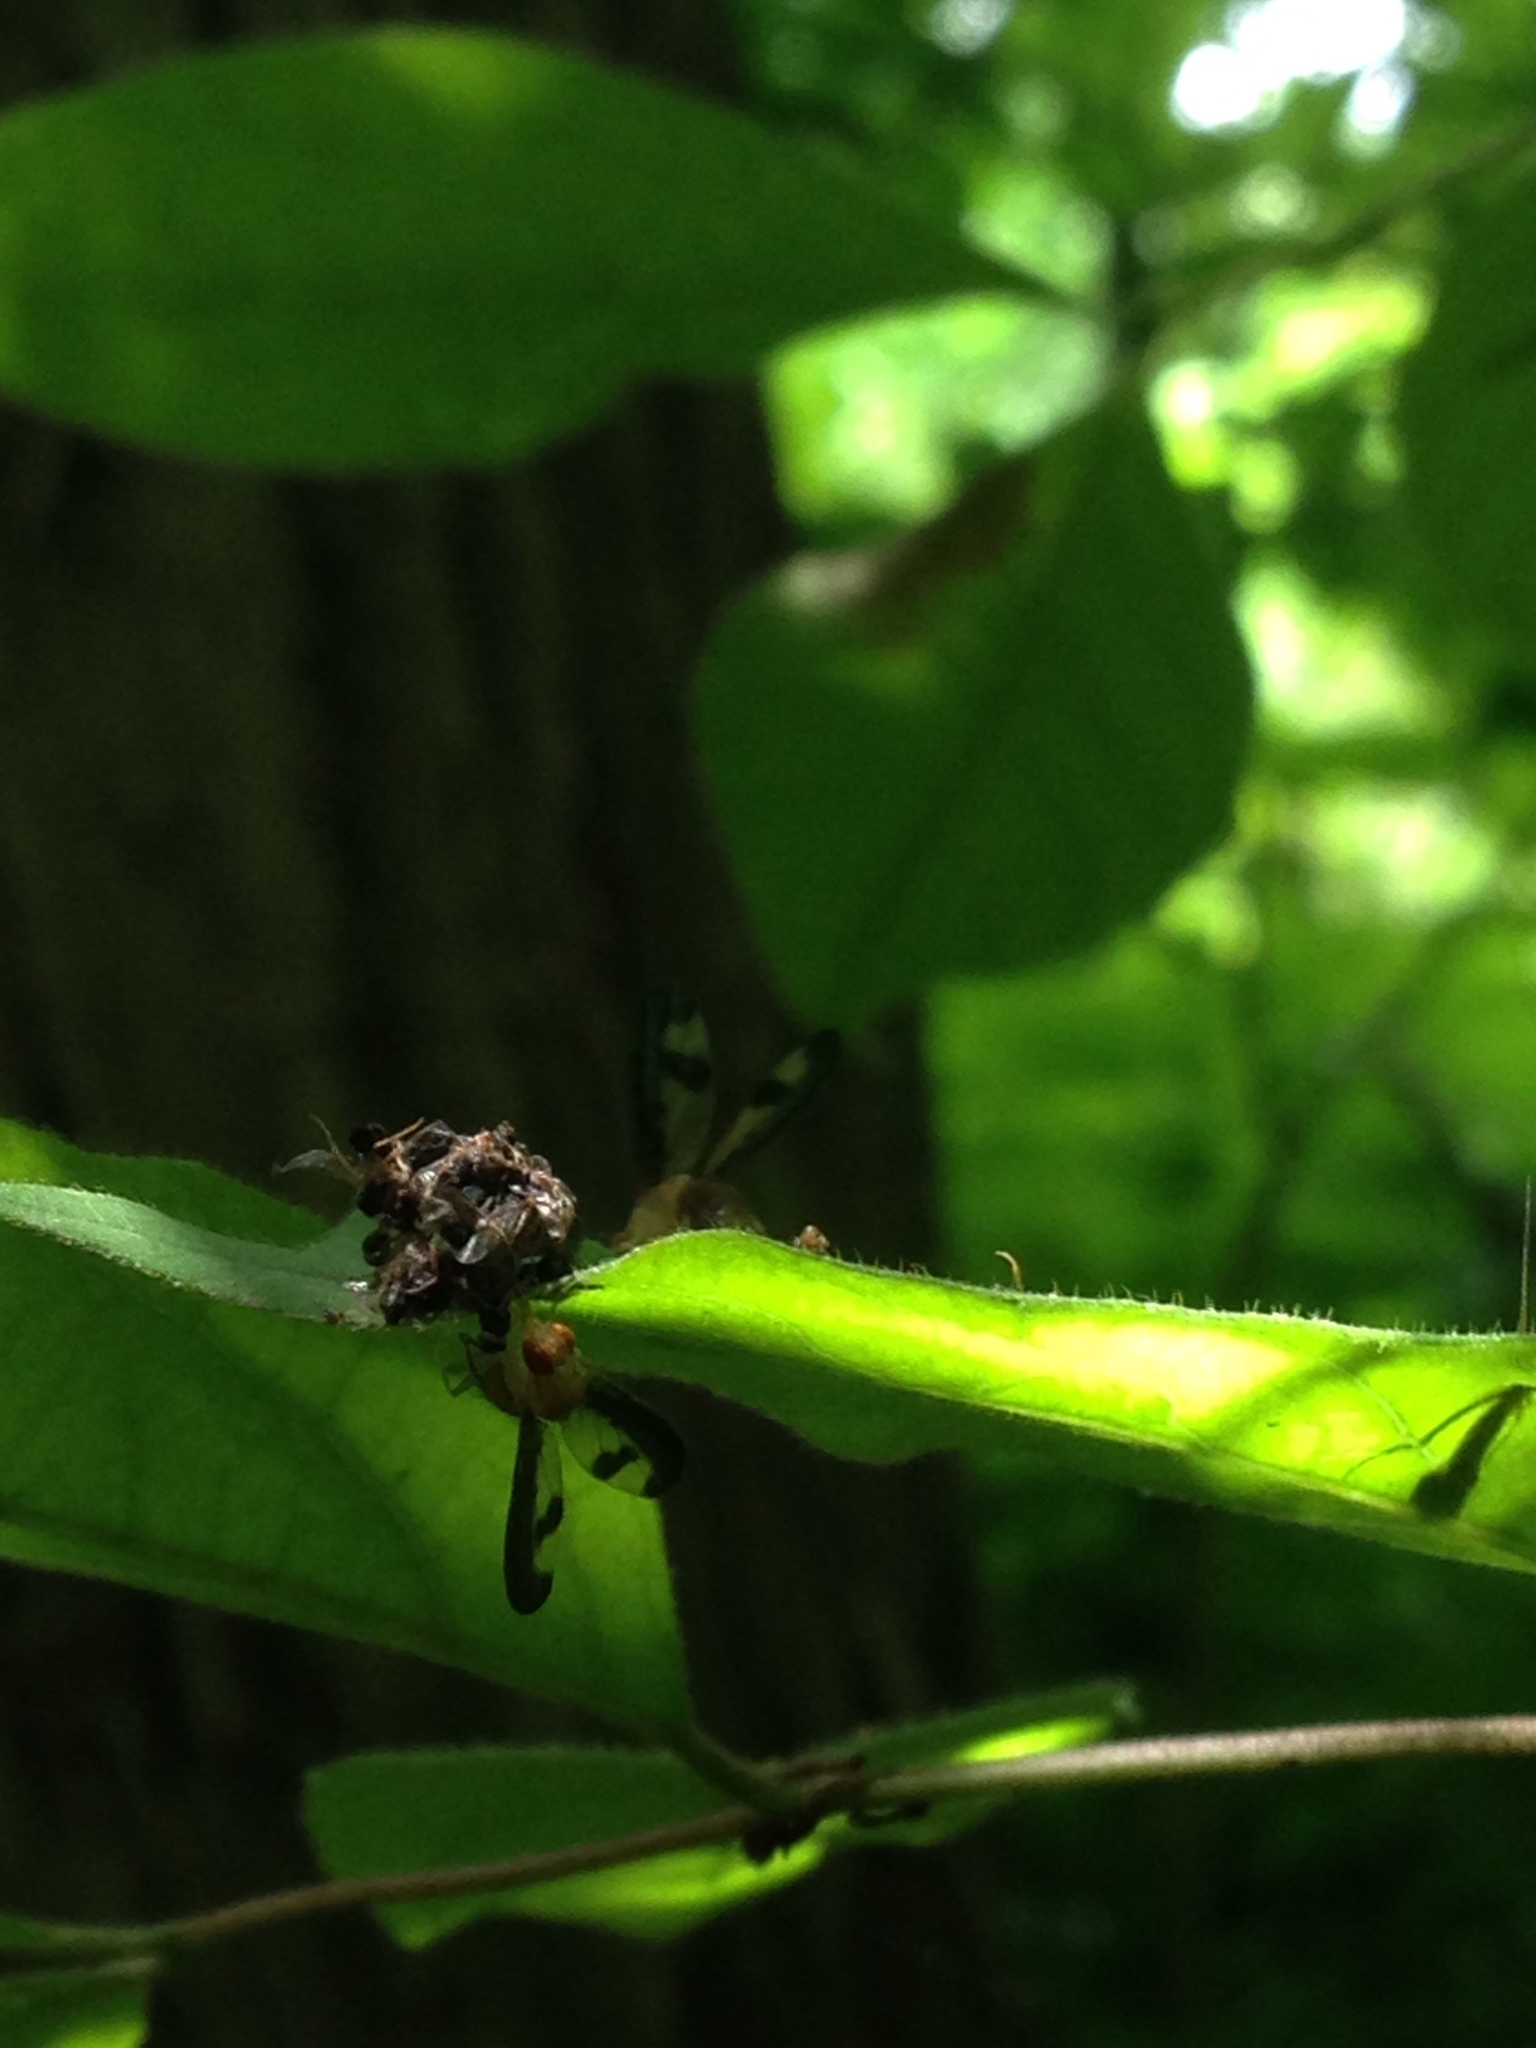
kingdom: Animalia
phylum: Arthropoda
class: Insecta
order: Diptera
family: Pallopteridae
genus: Toxonevra
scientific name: Toxonevra superba
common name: Antlered flutter fly
